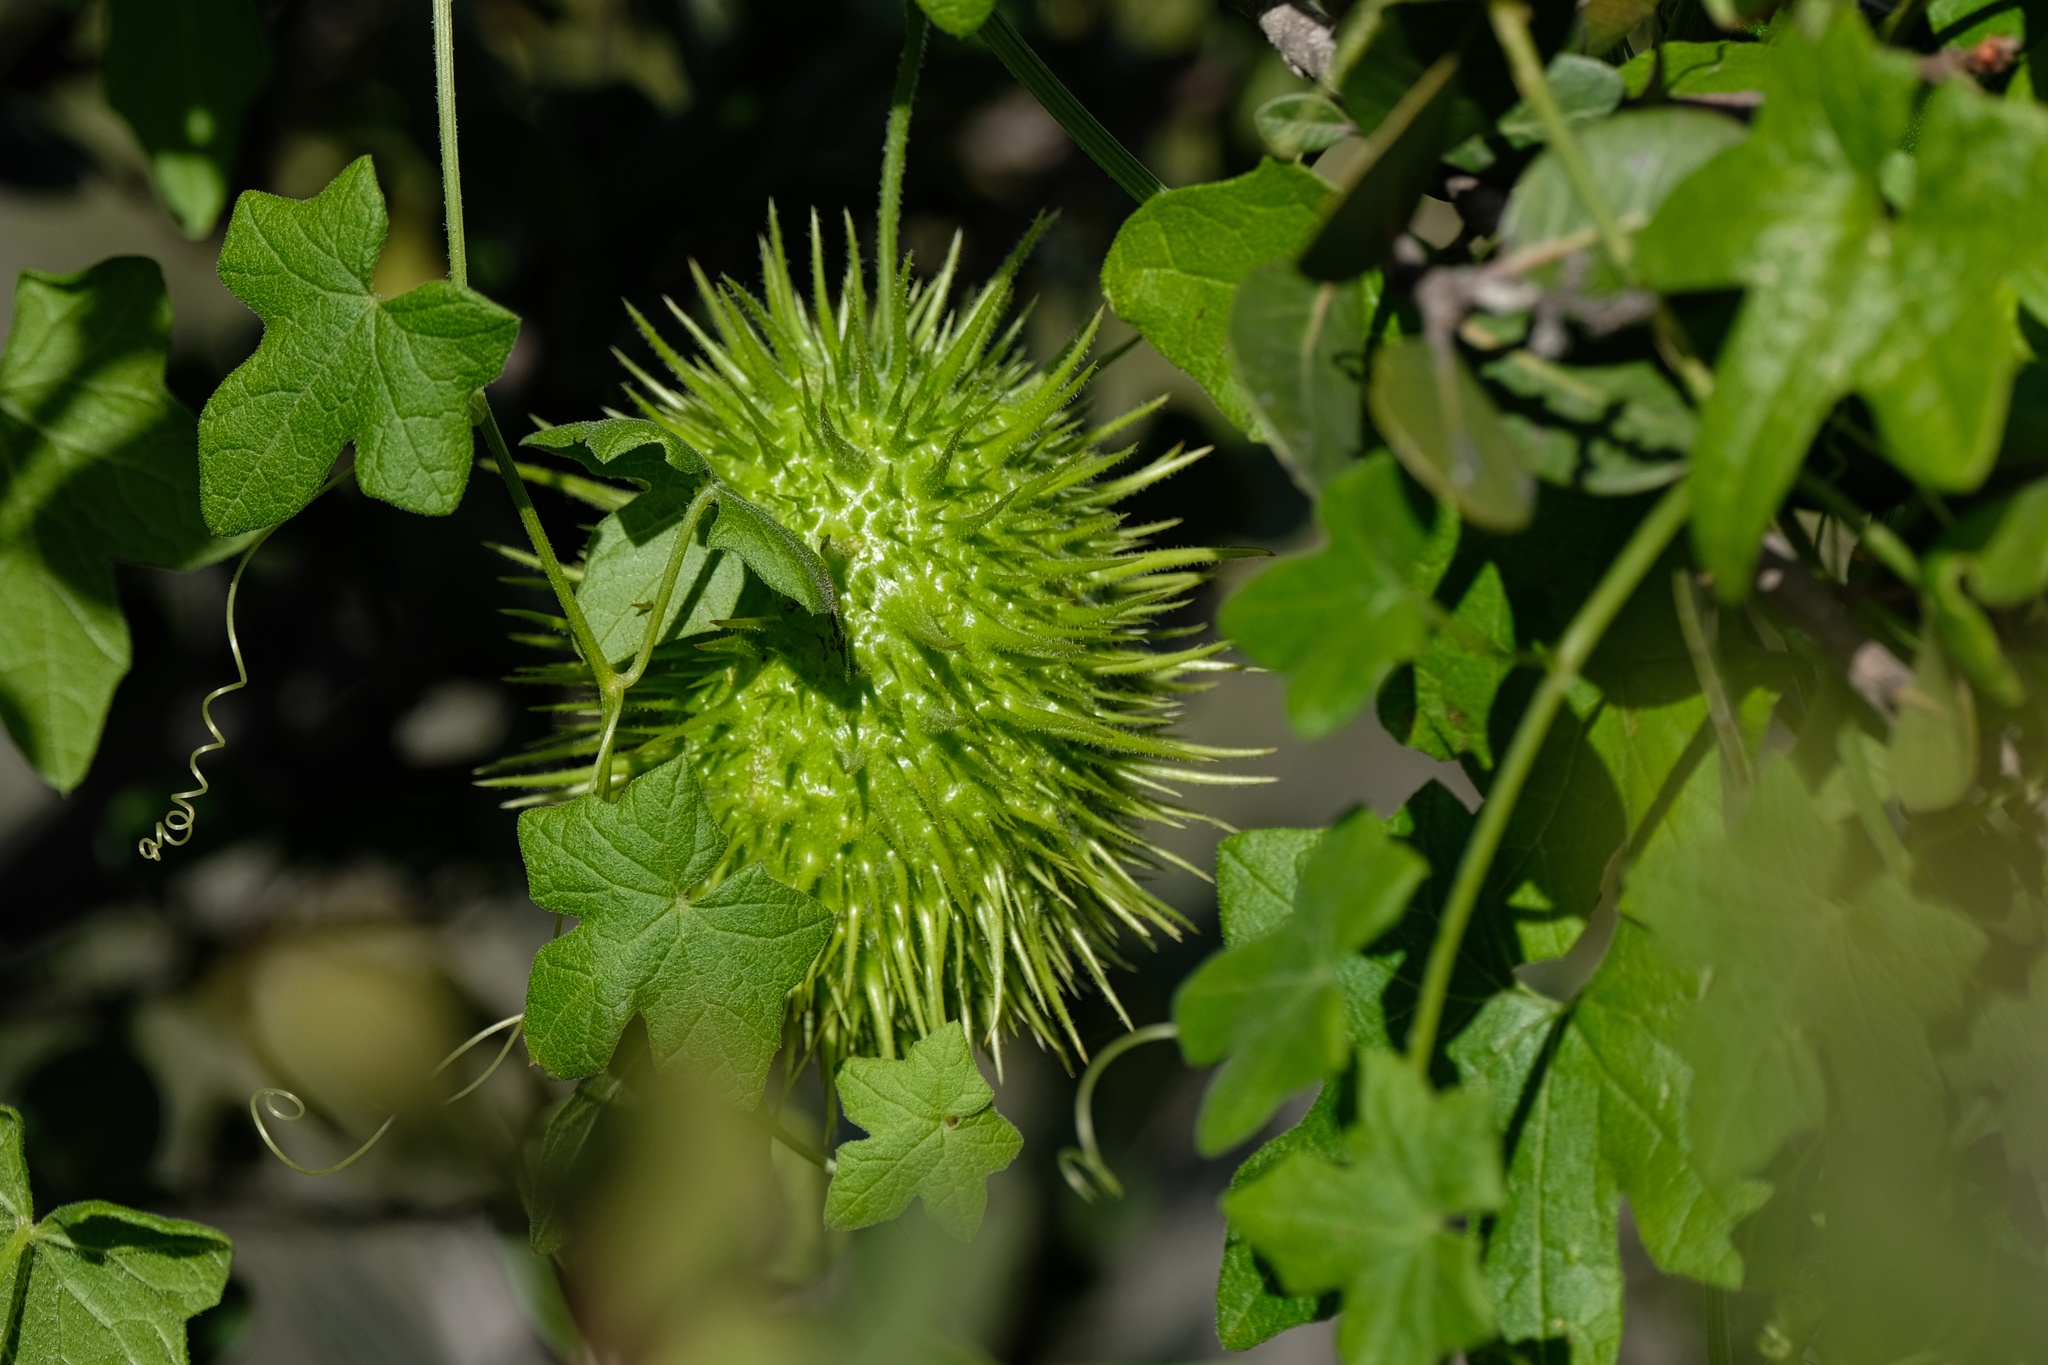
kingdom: Plantae
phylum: Tracheophyta
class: Magnoliopsida
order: Cucurbitales
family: Cucurbitaceae
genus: Marah
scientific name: Marah macrocarpa
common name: Cucamonga manroot
